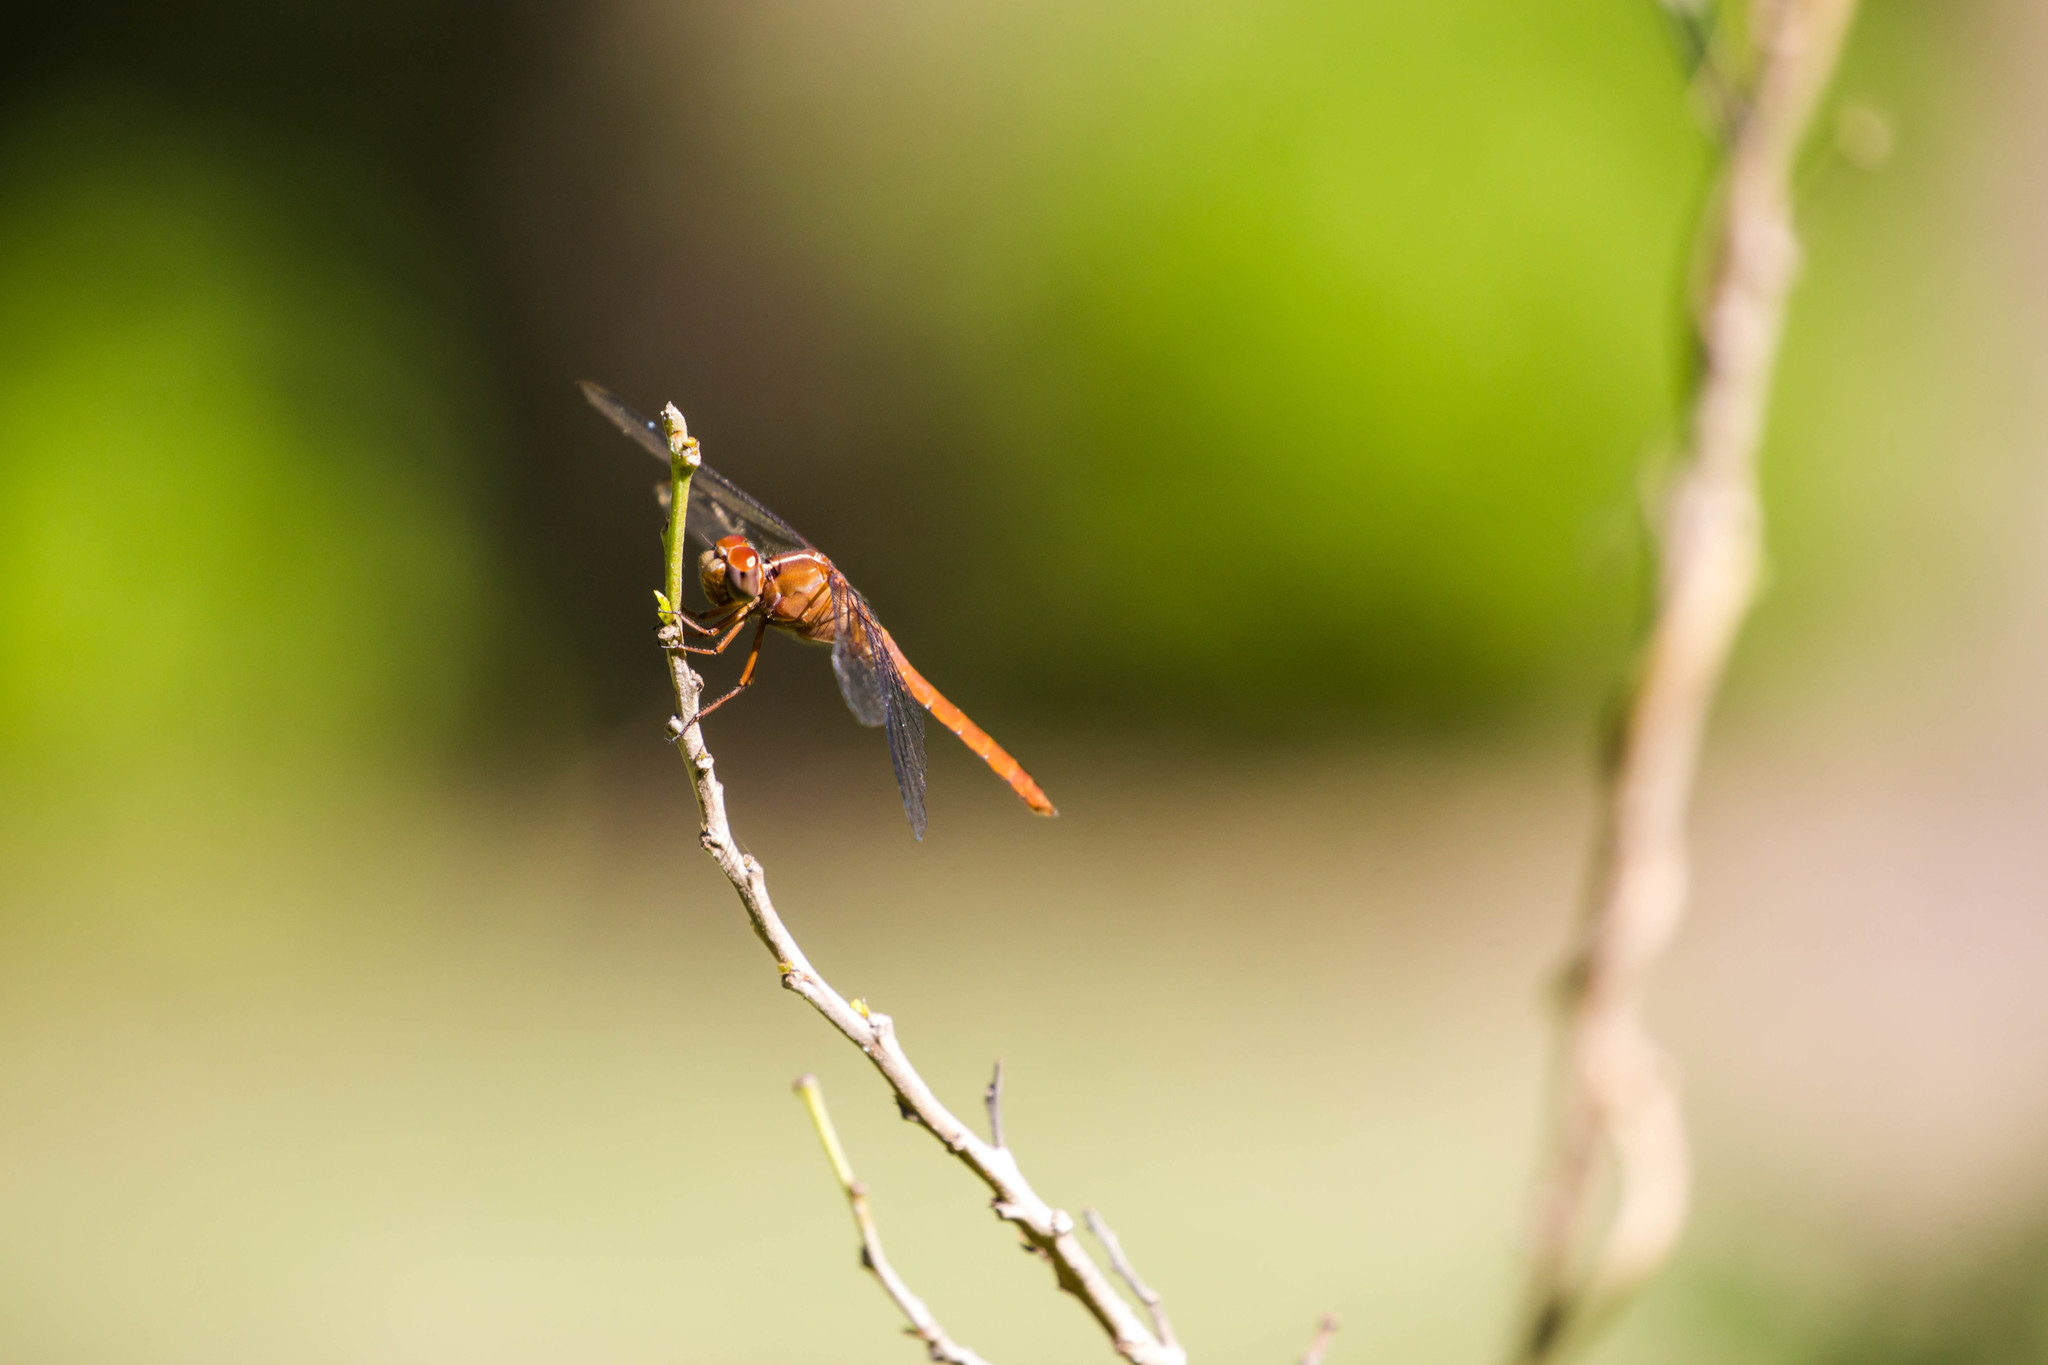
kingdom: Animalia
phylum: Arthropoda
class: Insecta
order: Odonata
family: Libellulidae
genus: Orthemis
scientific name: Orthemis discolor
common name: Carmine skimmer
